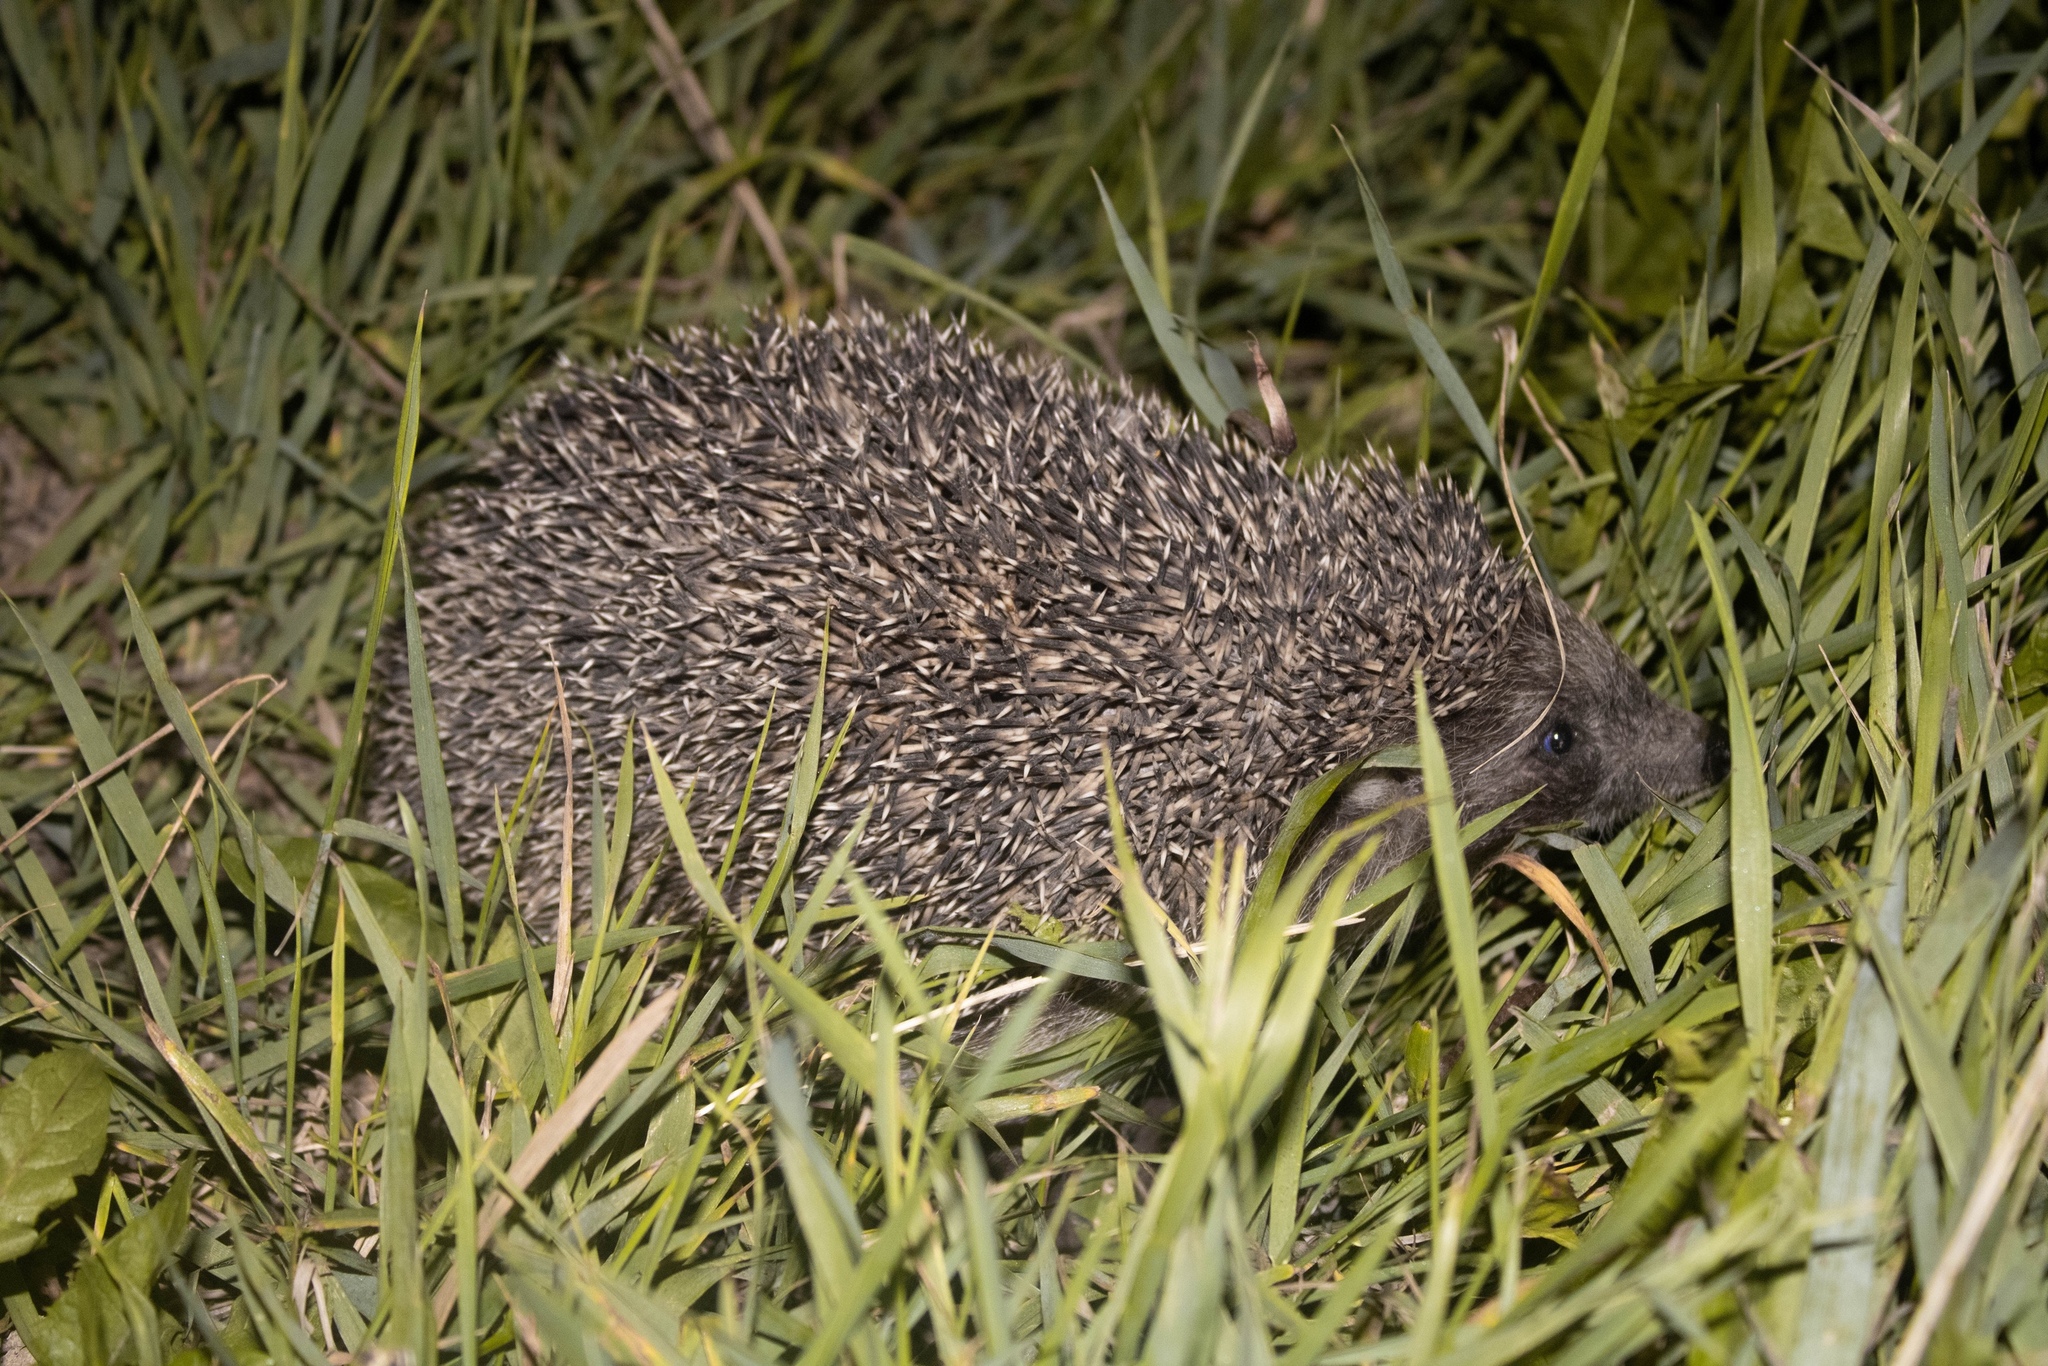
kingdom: Animalia
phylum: Chordata
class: Mammalia
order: Erinaceomorpha
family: Erinaceidae
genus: Erinaceus
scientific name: Erinaceus roumanicus
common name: Northern white-breasted hedgehog
